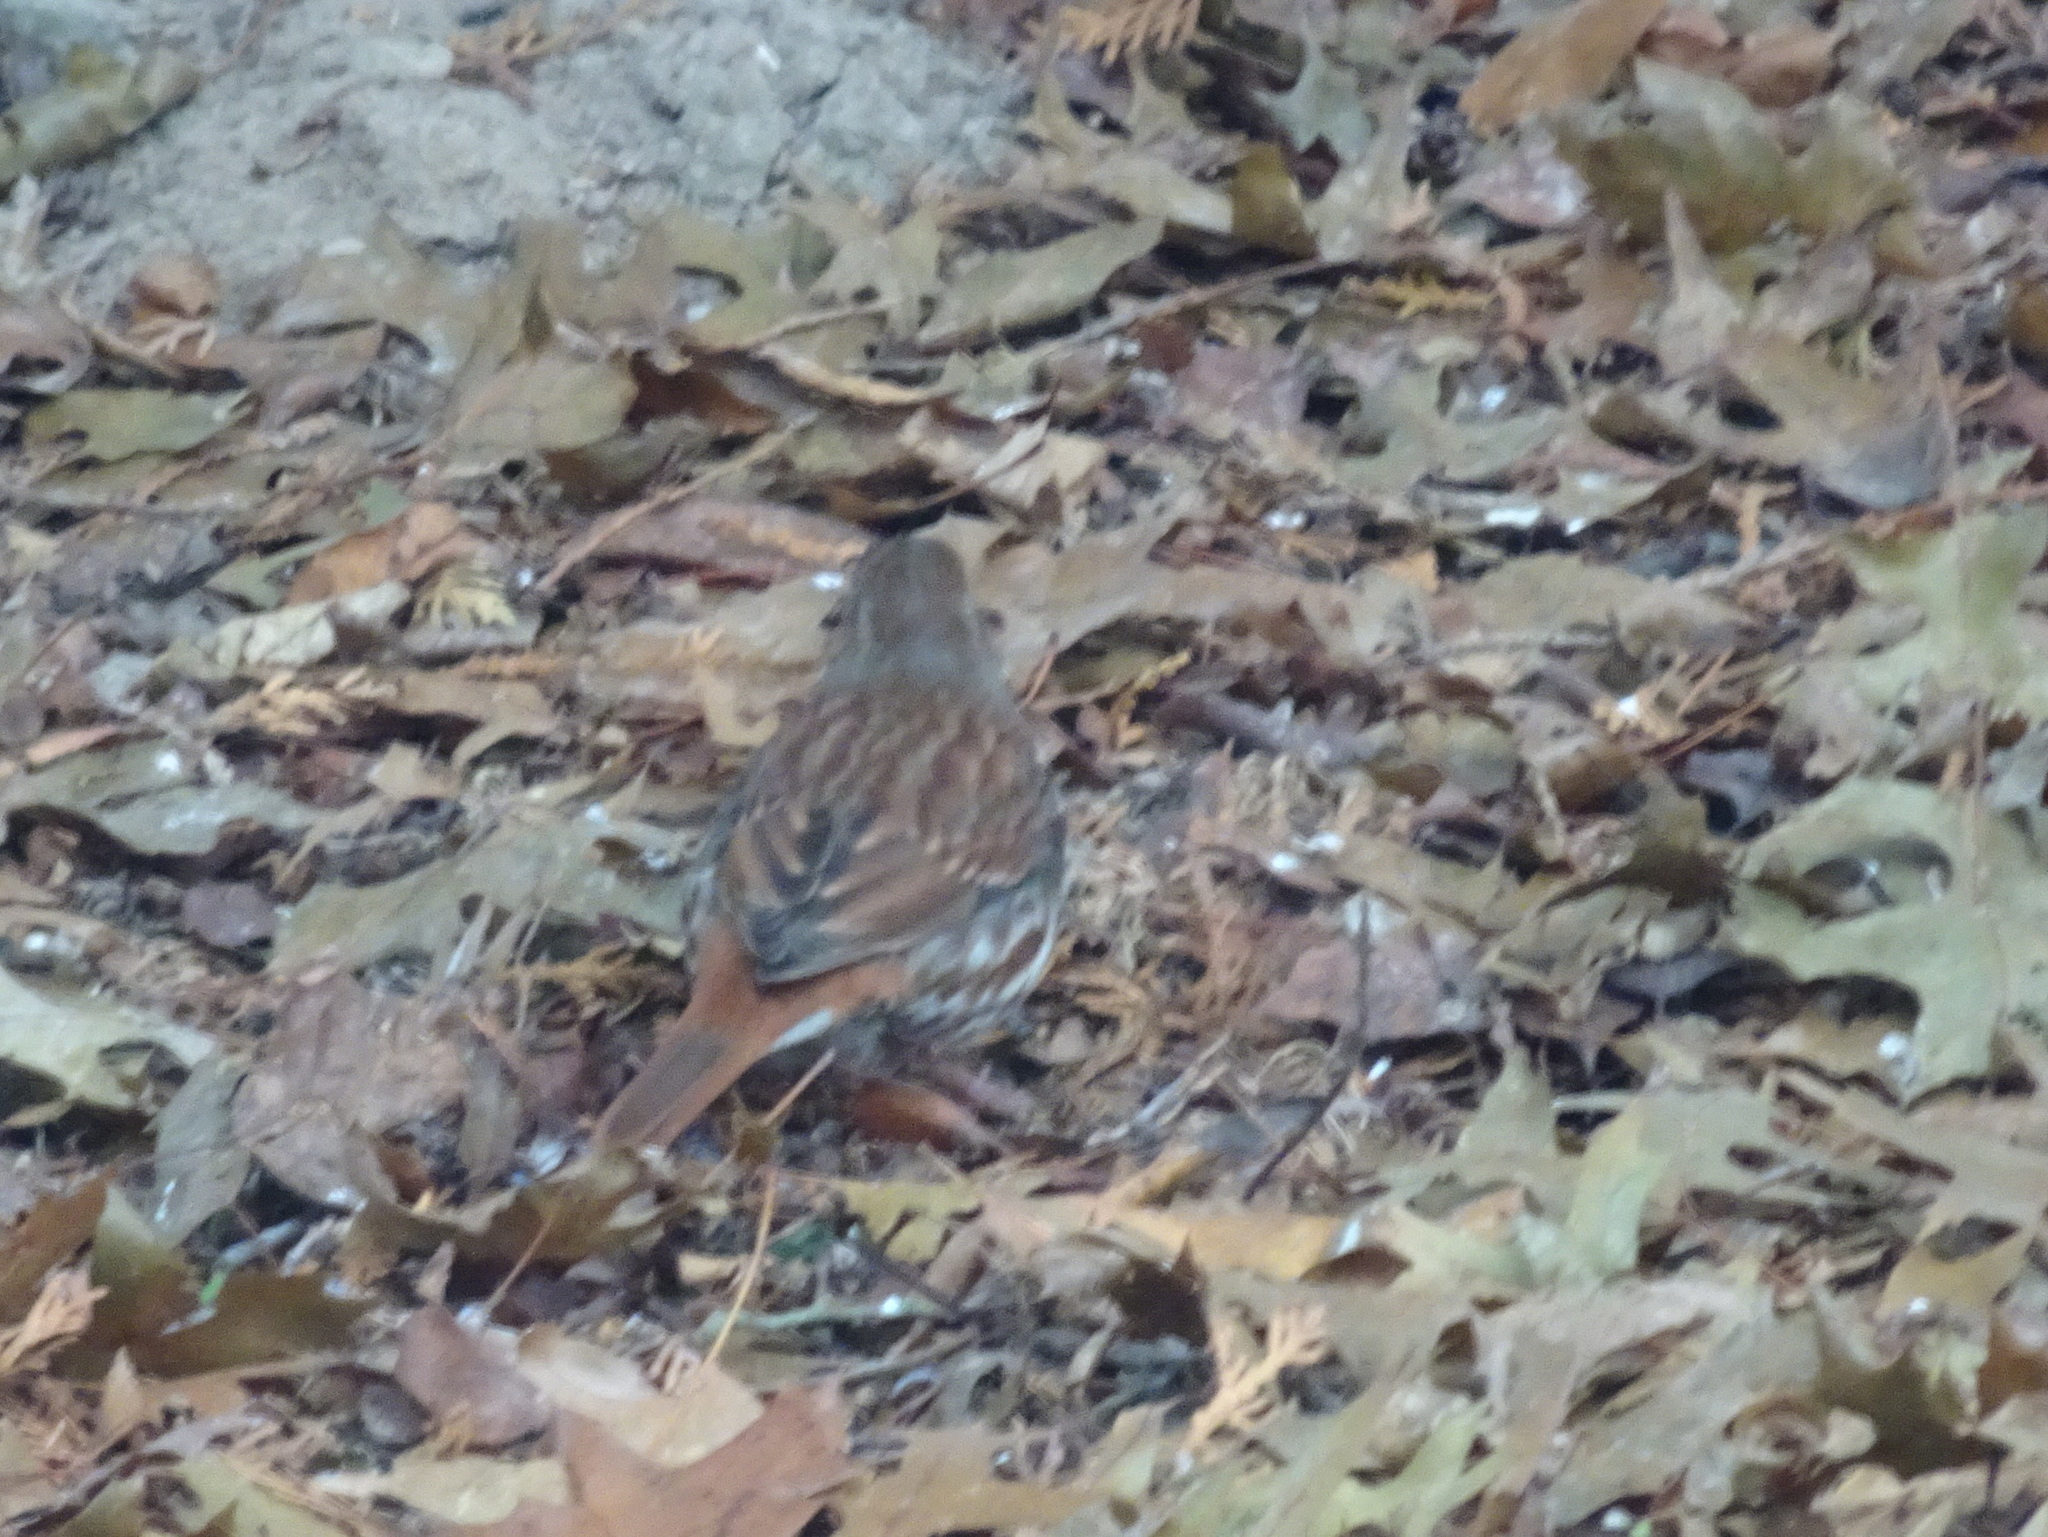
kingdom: Animalia
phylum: Chordata
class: Aves
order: Passeriformes
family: Passerellidae
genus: Passerella
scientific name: Passerella iliaca
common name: Fox sparrow
